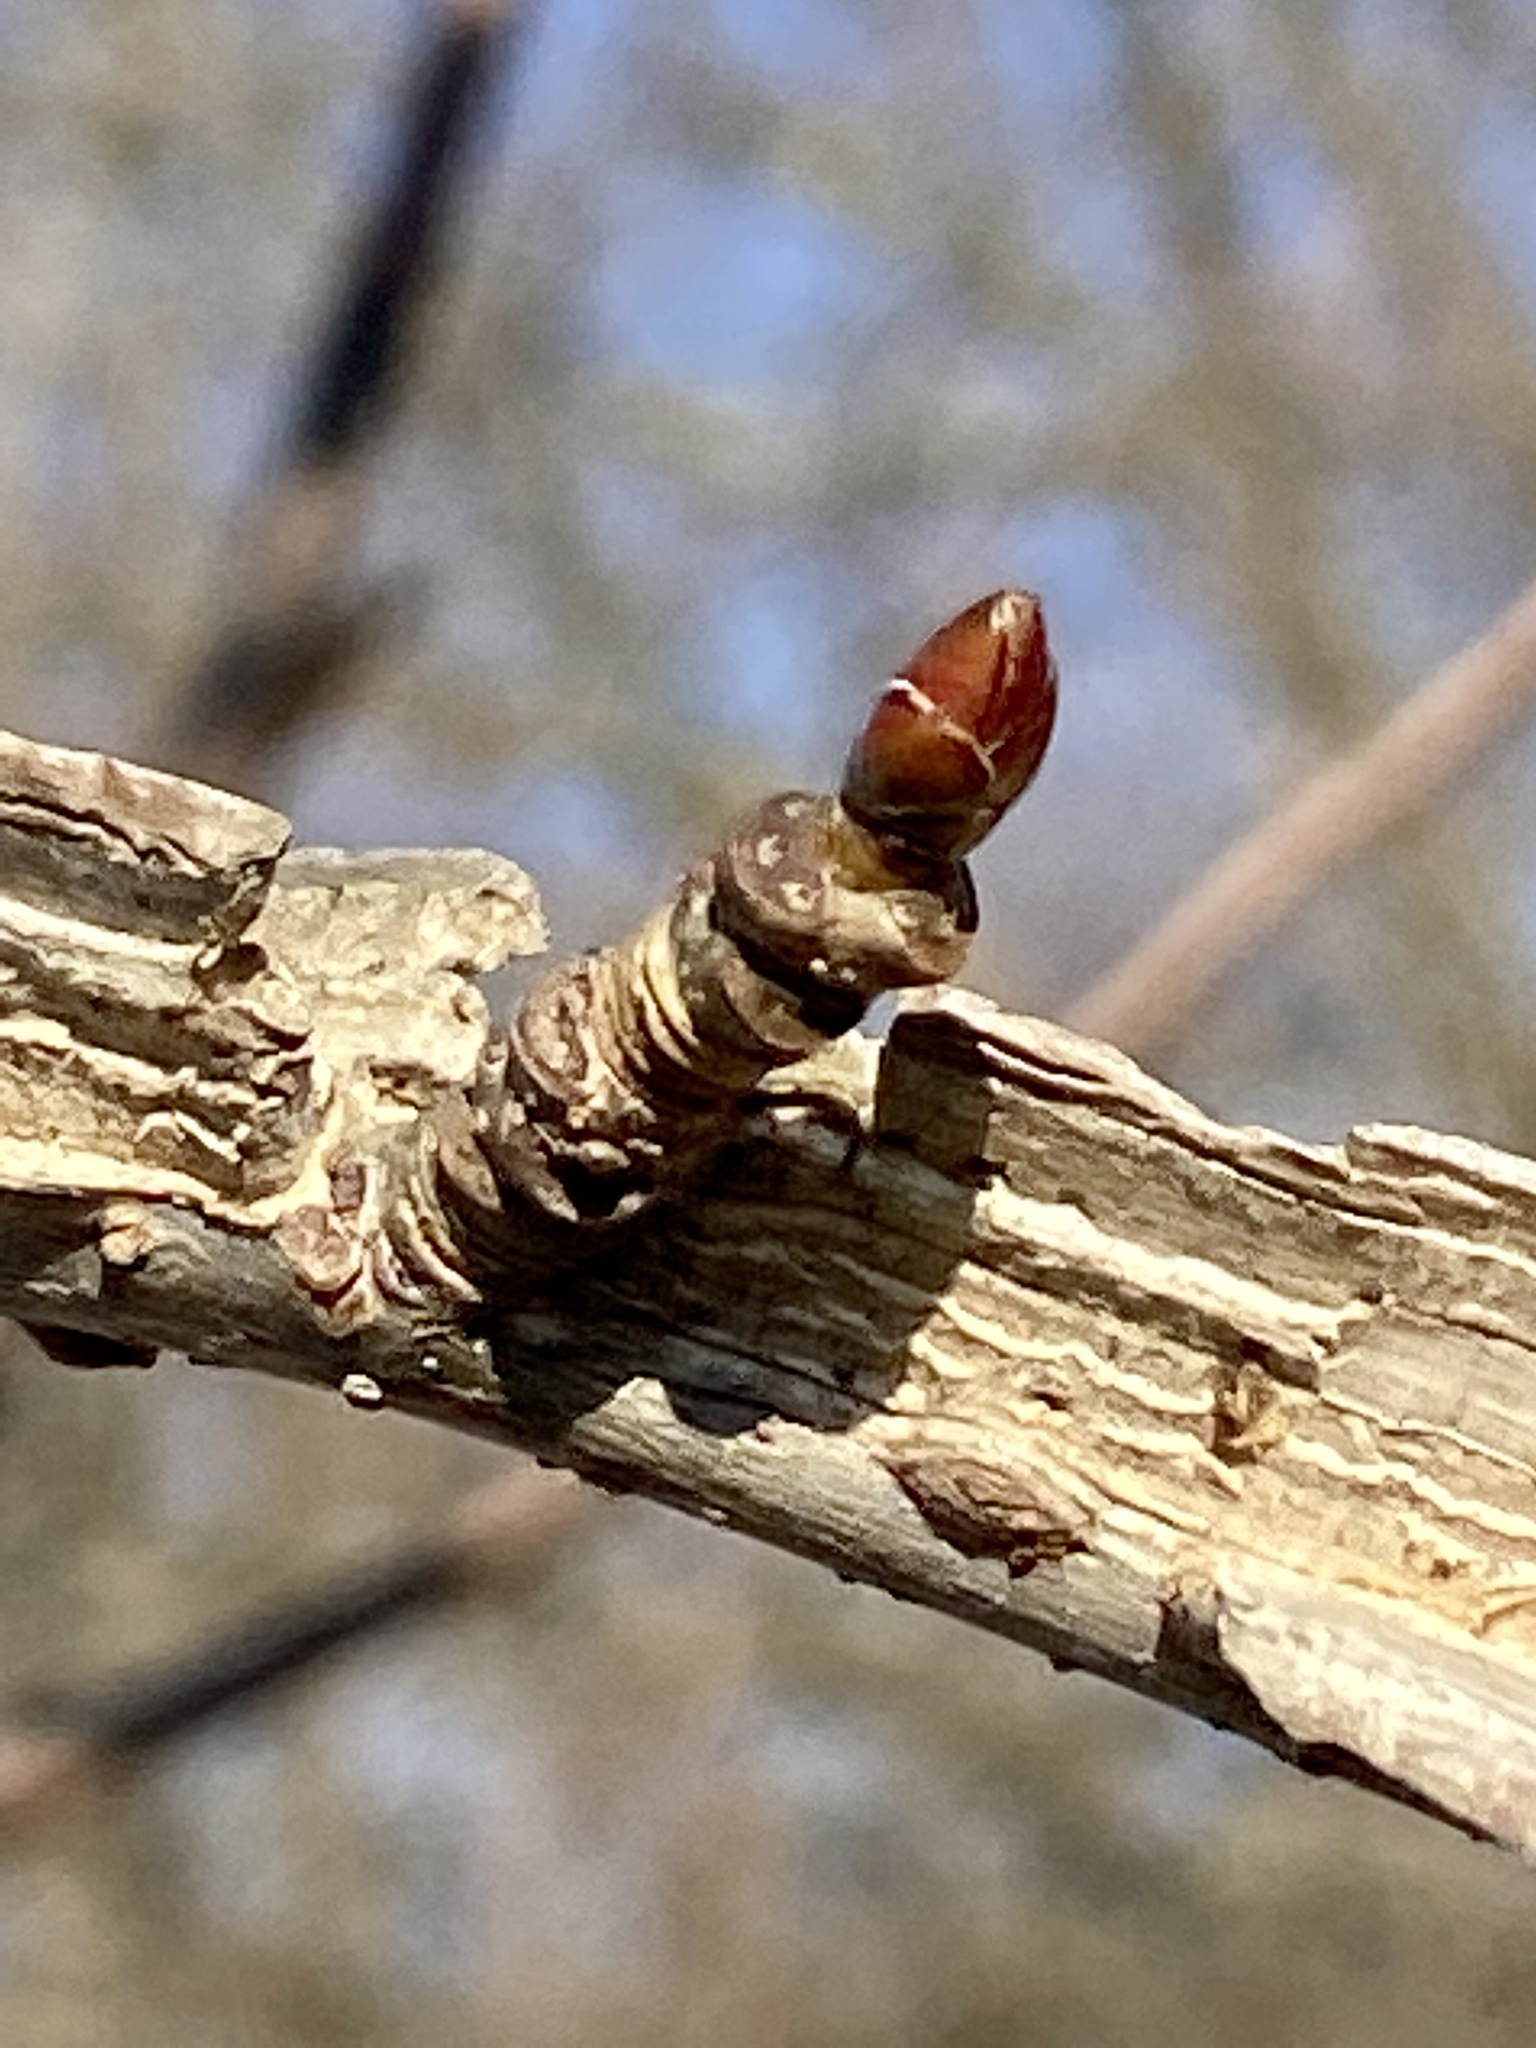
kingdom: Plantae
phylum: Tracheophyta
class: Magnoliopsida
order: Saxifragales
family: Altingiaceae
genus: Liquidambar
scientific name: Liquidambar styraciflua
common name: Sweet gum
